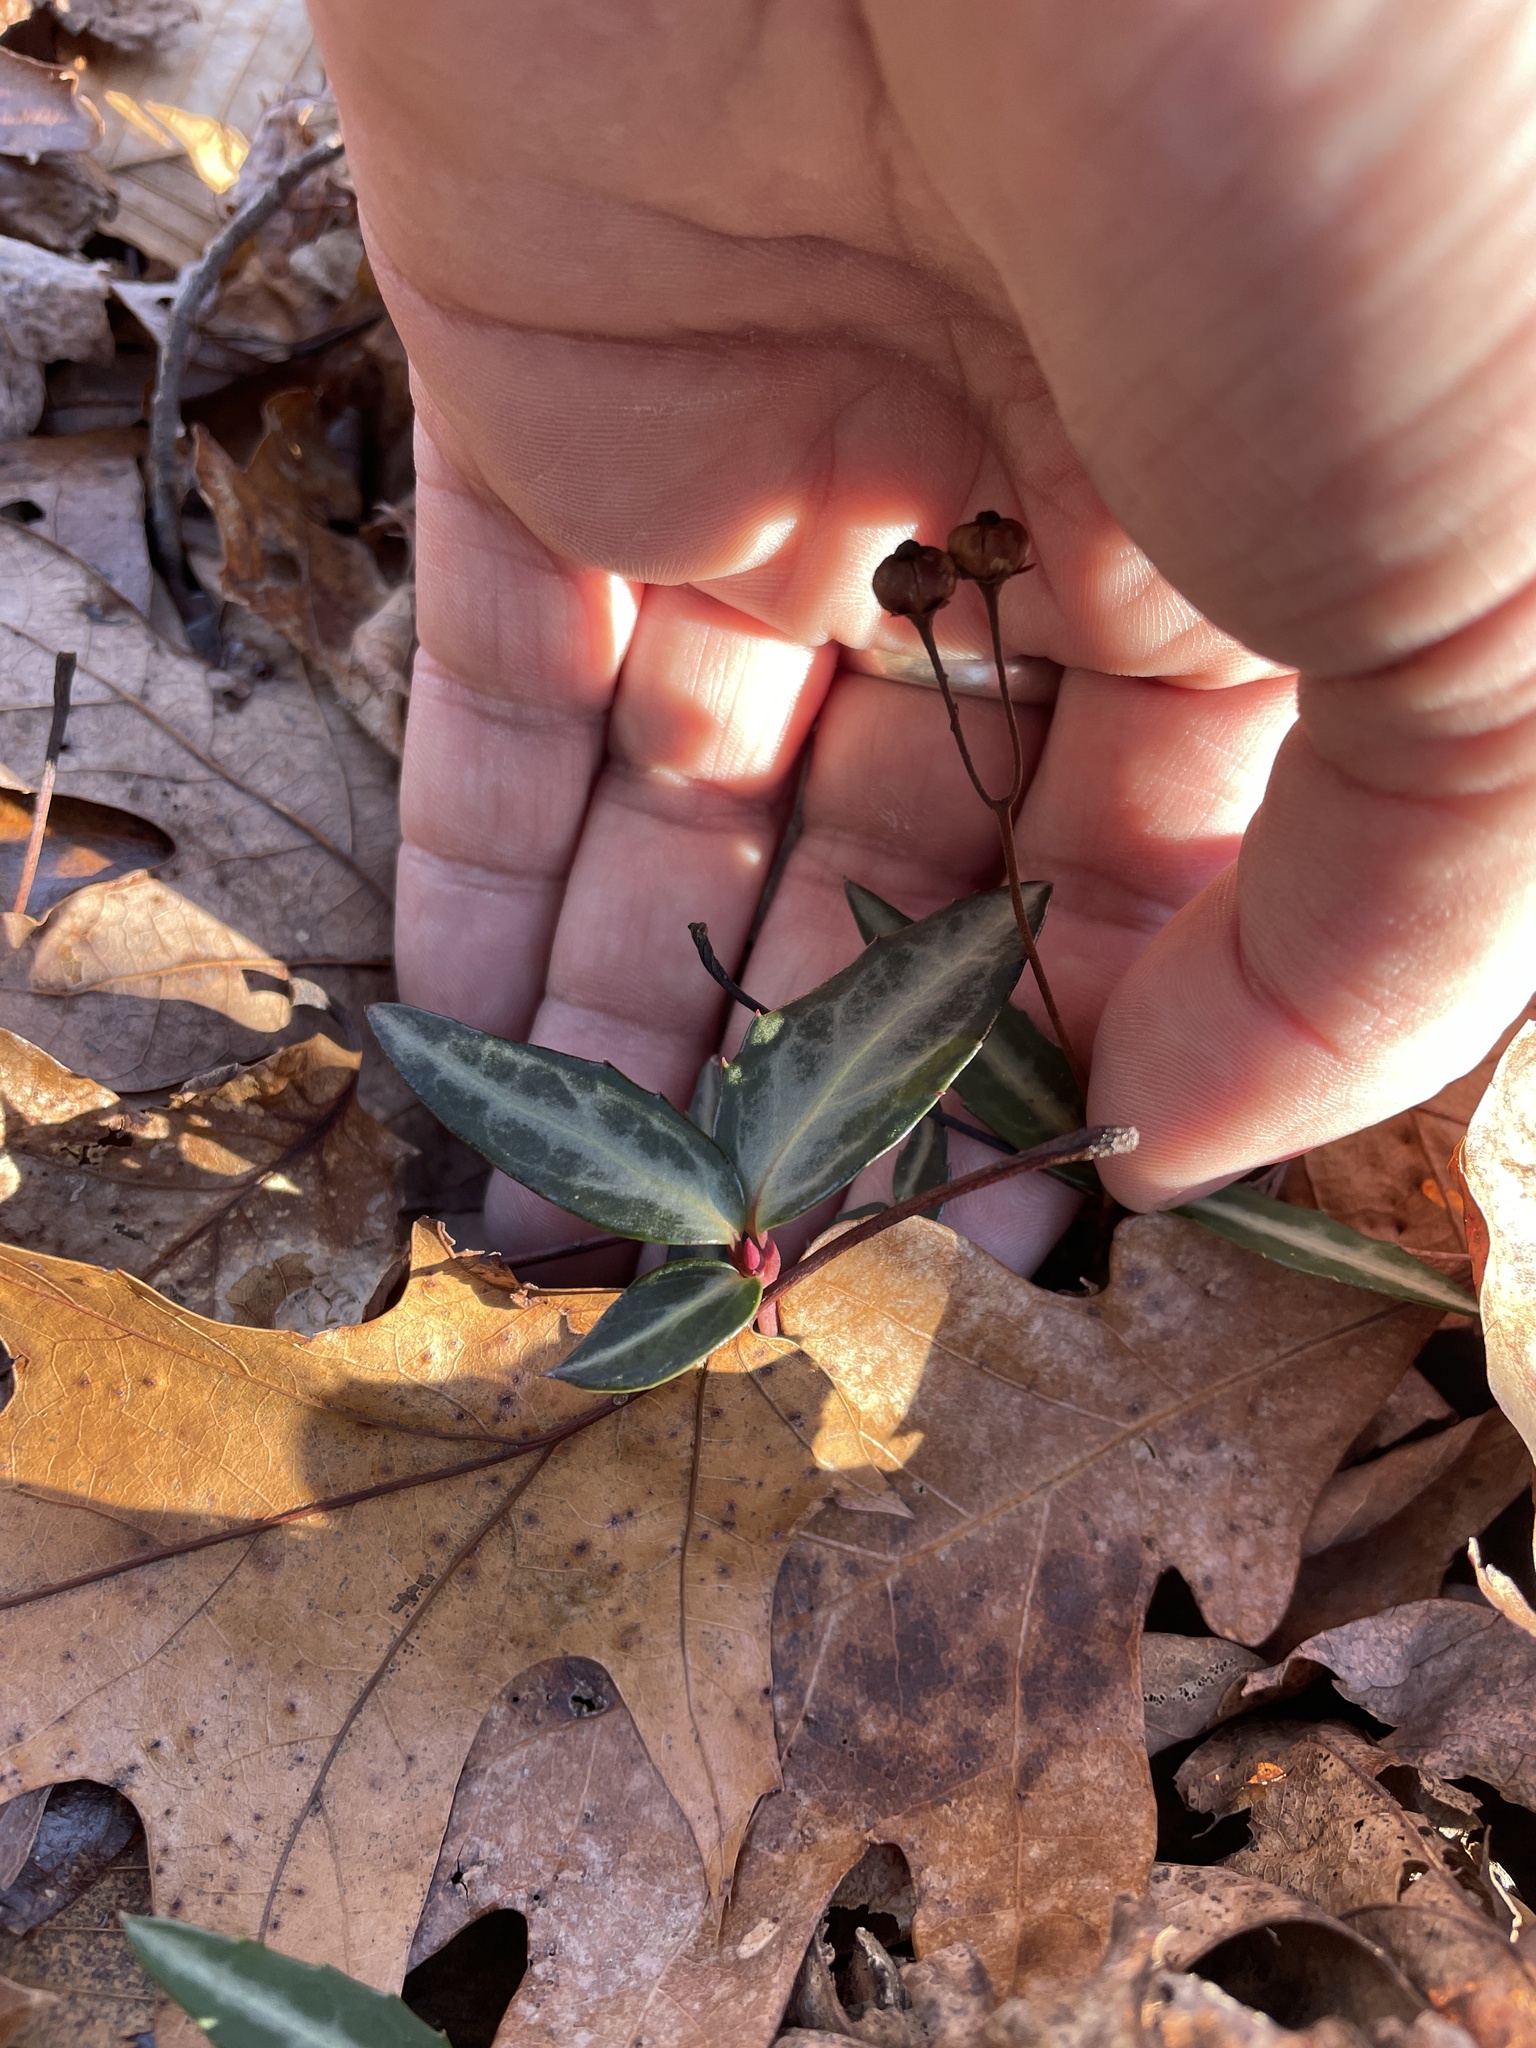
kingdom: Plantae
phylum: Tracheophyta
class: Magnoliopsida
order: Ericales
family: Ericaceae
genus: Chimaphila
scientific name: Chimaphila maculata
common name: Spotted pipsissewa
